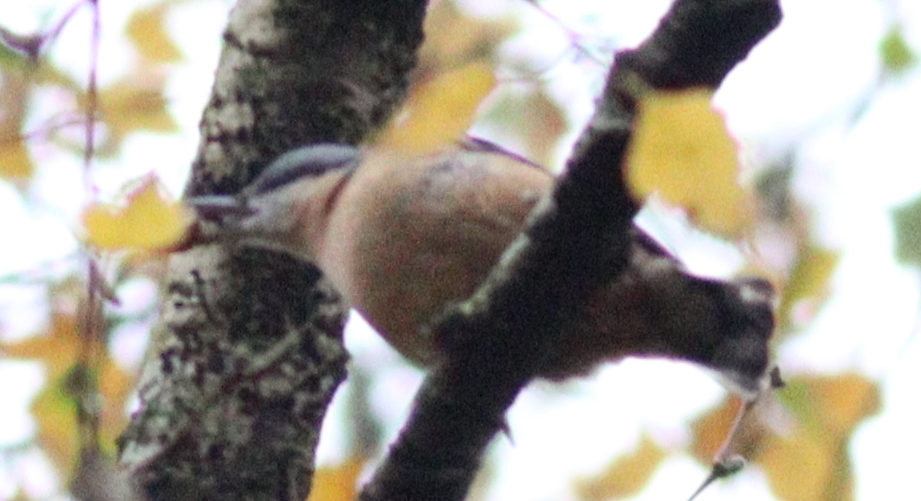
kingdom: Animalia
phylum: Chordata
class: Aves
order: Passeriformes
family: Sittidae
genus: Sitta
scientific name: Sitta europaea
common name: Eurasian nuthatch
